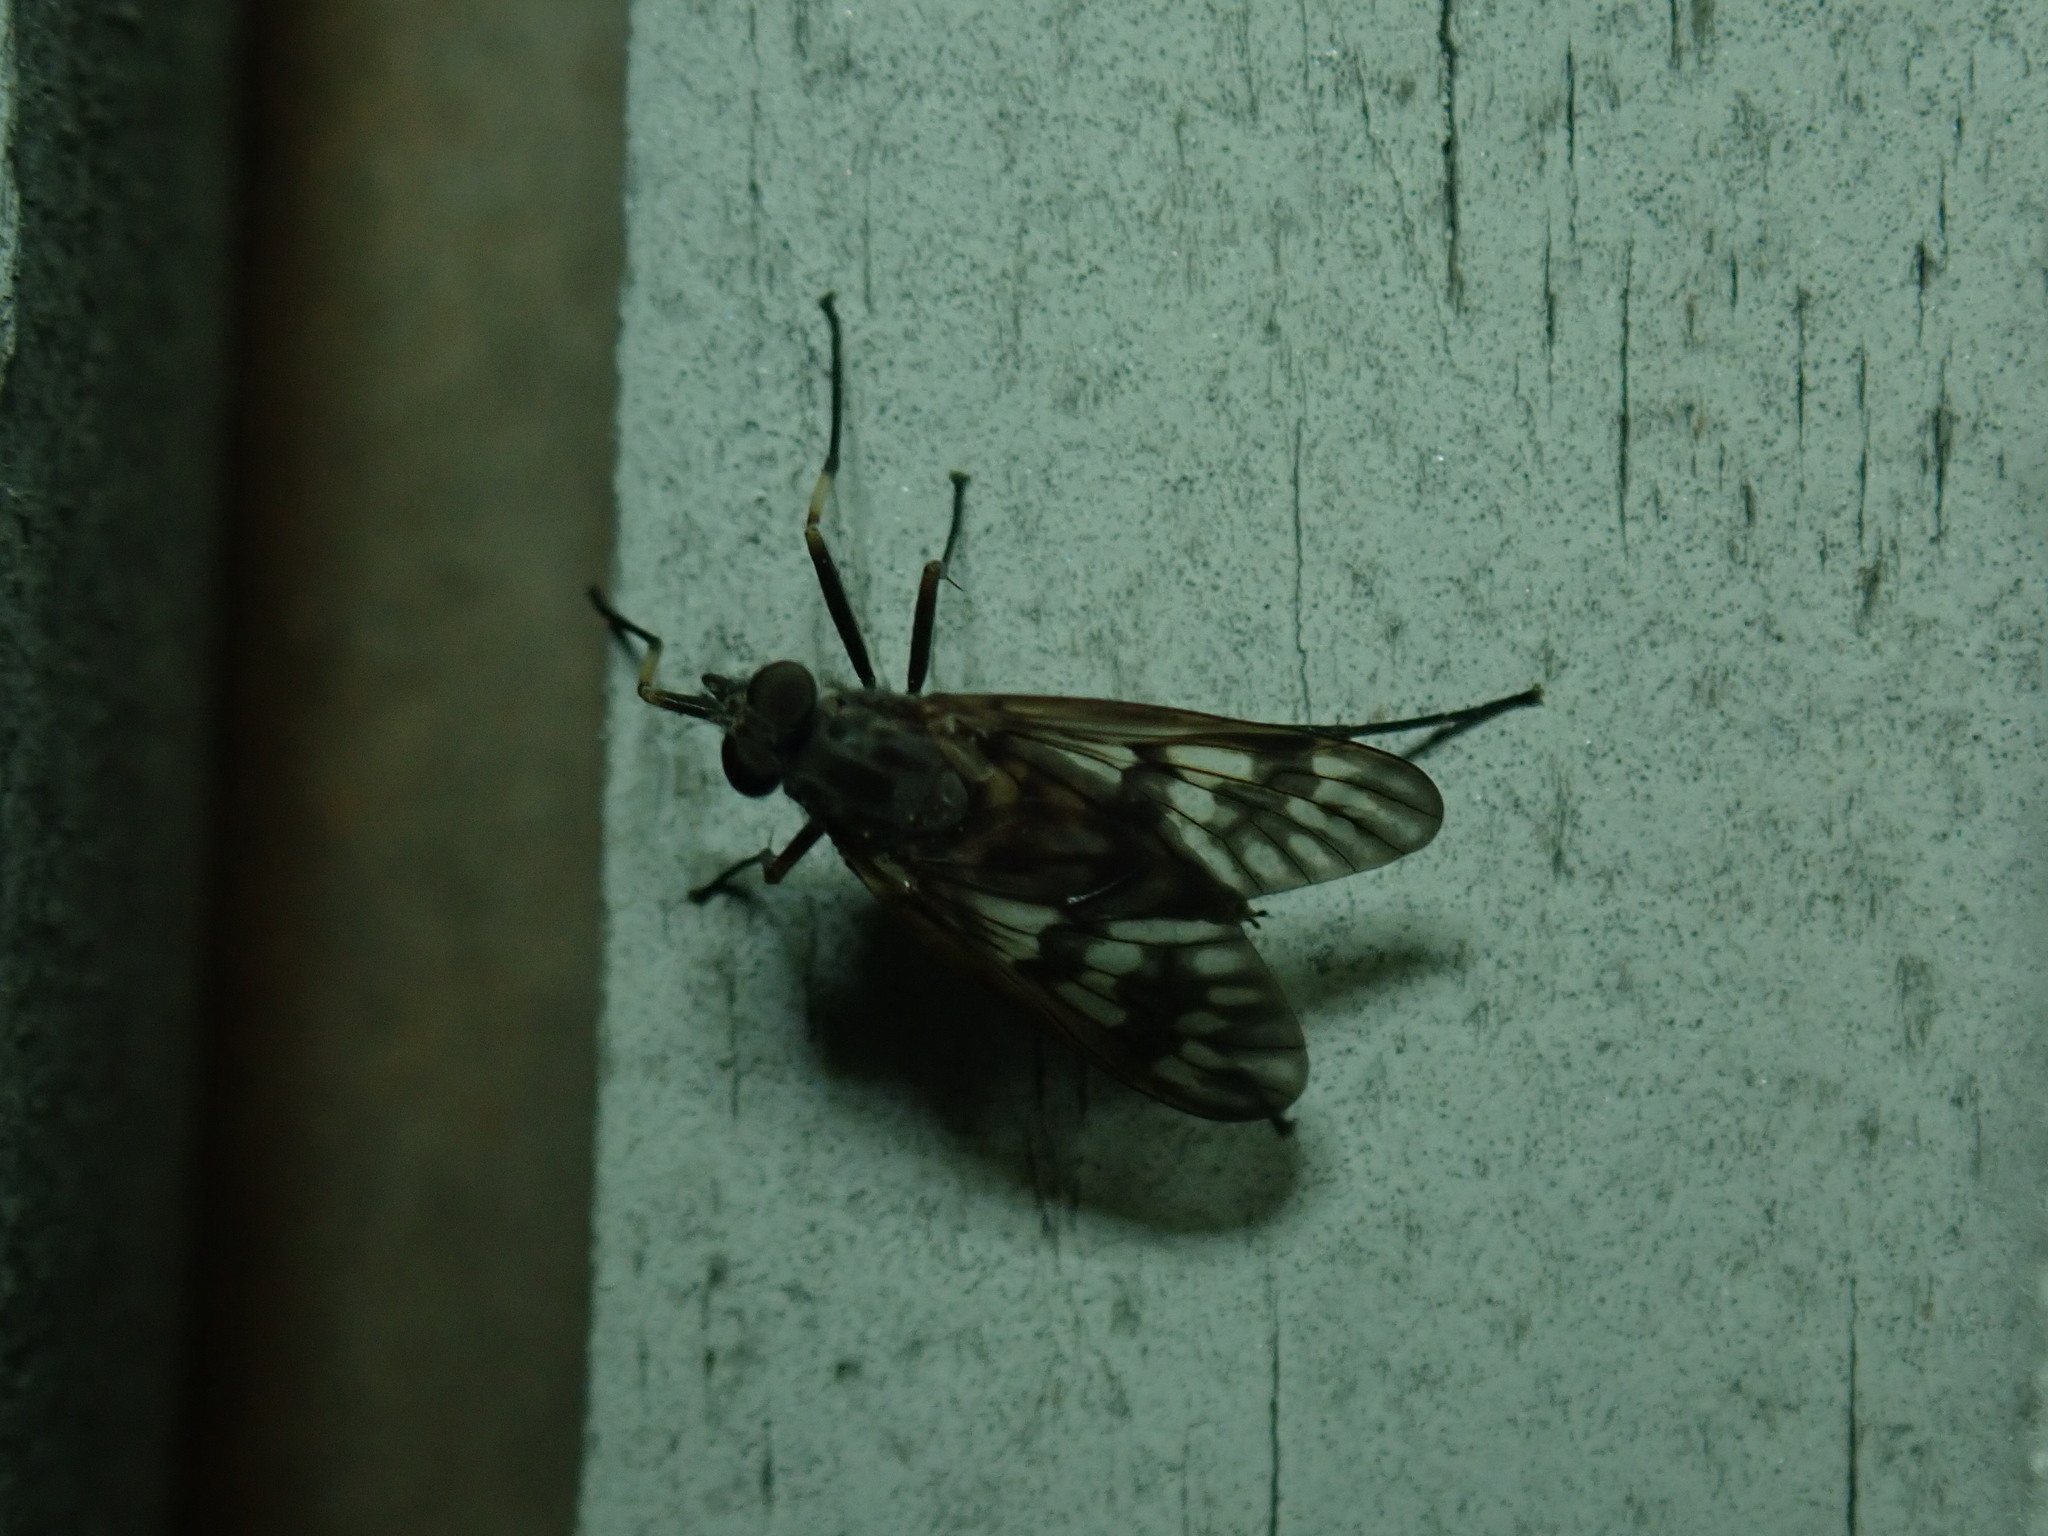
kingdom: Animalia
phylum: Arthropoda
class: Insecta
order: Diptera
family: Rhagionidae
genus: Rhagio
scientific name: Rhagio mystaceus
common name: Common snipe fly
